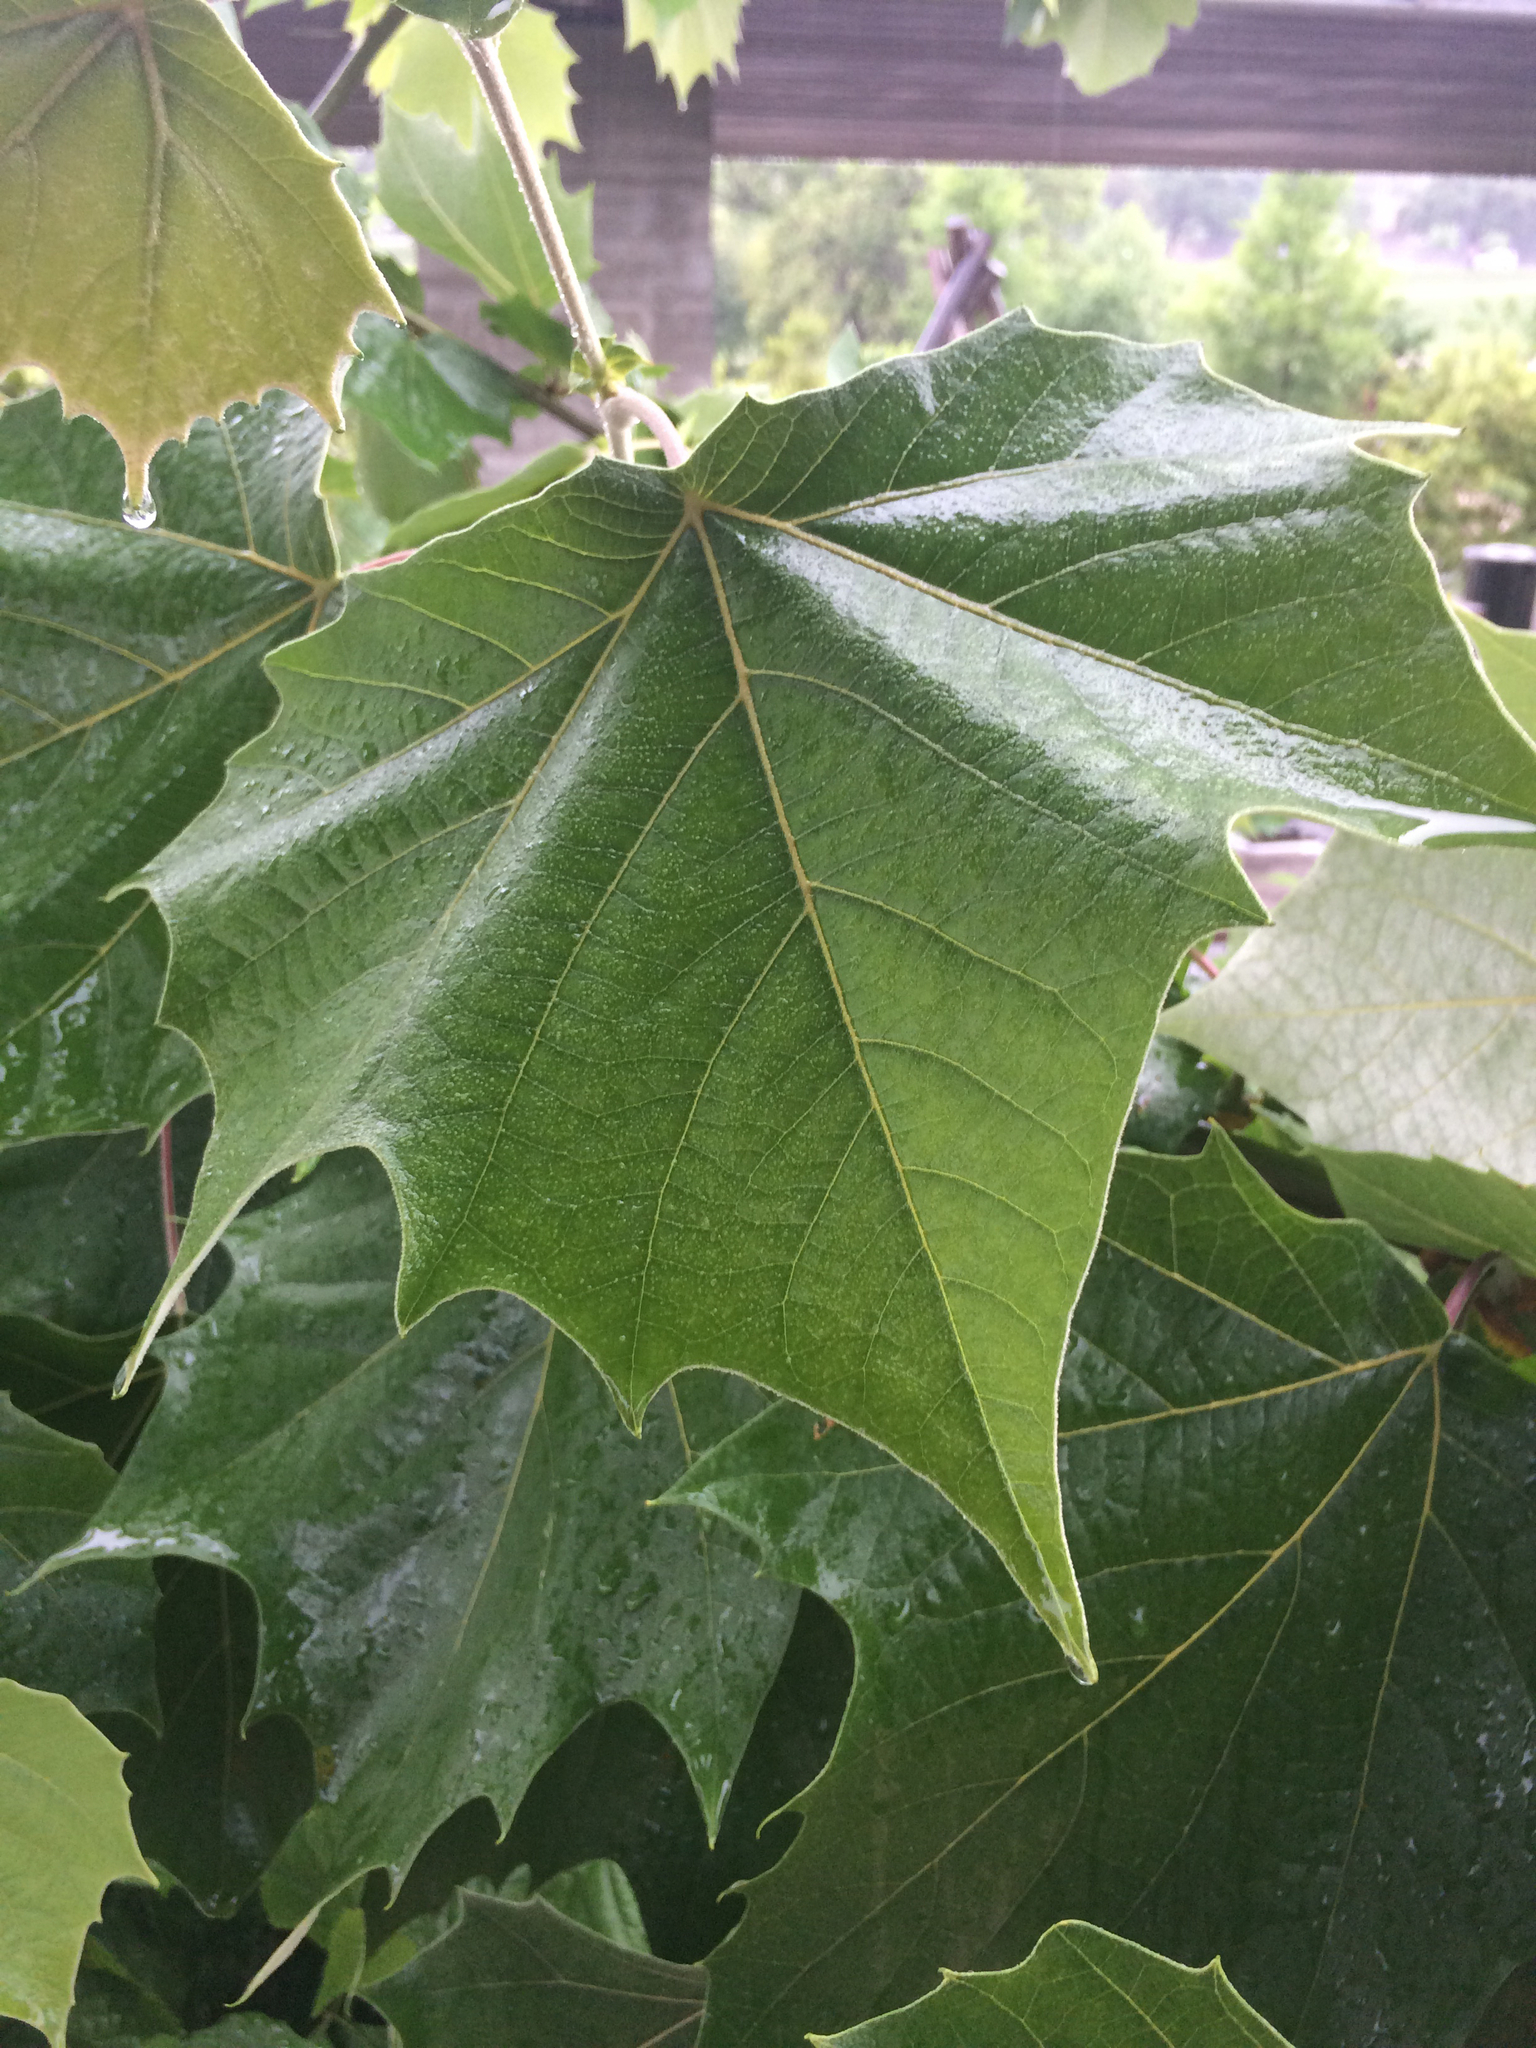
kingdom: Plantae
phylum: Tracheophyta
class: Magnoliopsida
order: Proteales
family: Platanaceae
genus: Platanus
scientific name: Platanus occidentalis
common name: American sycamore
